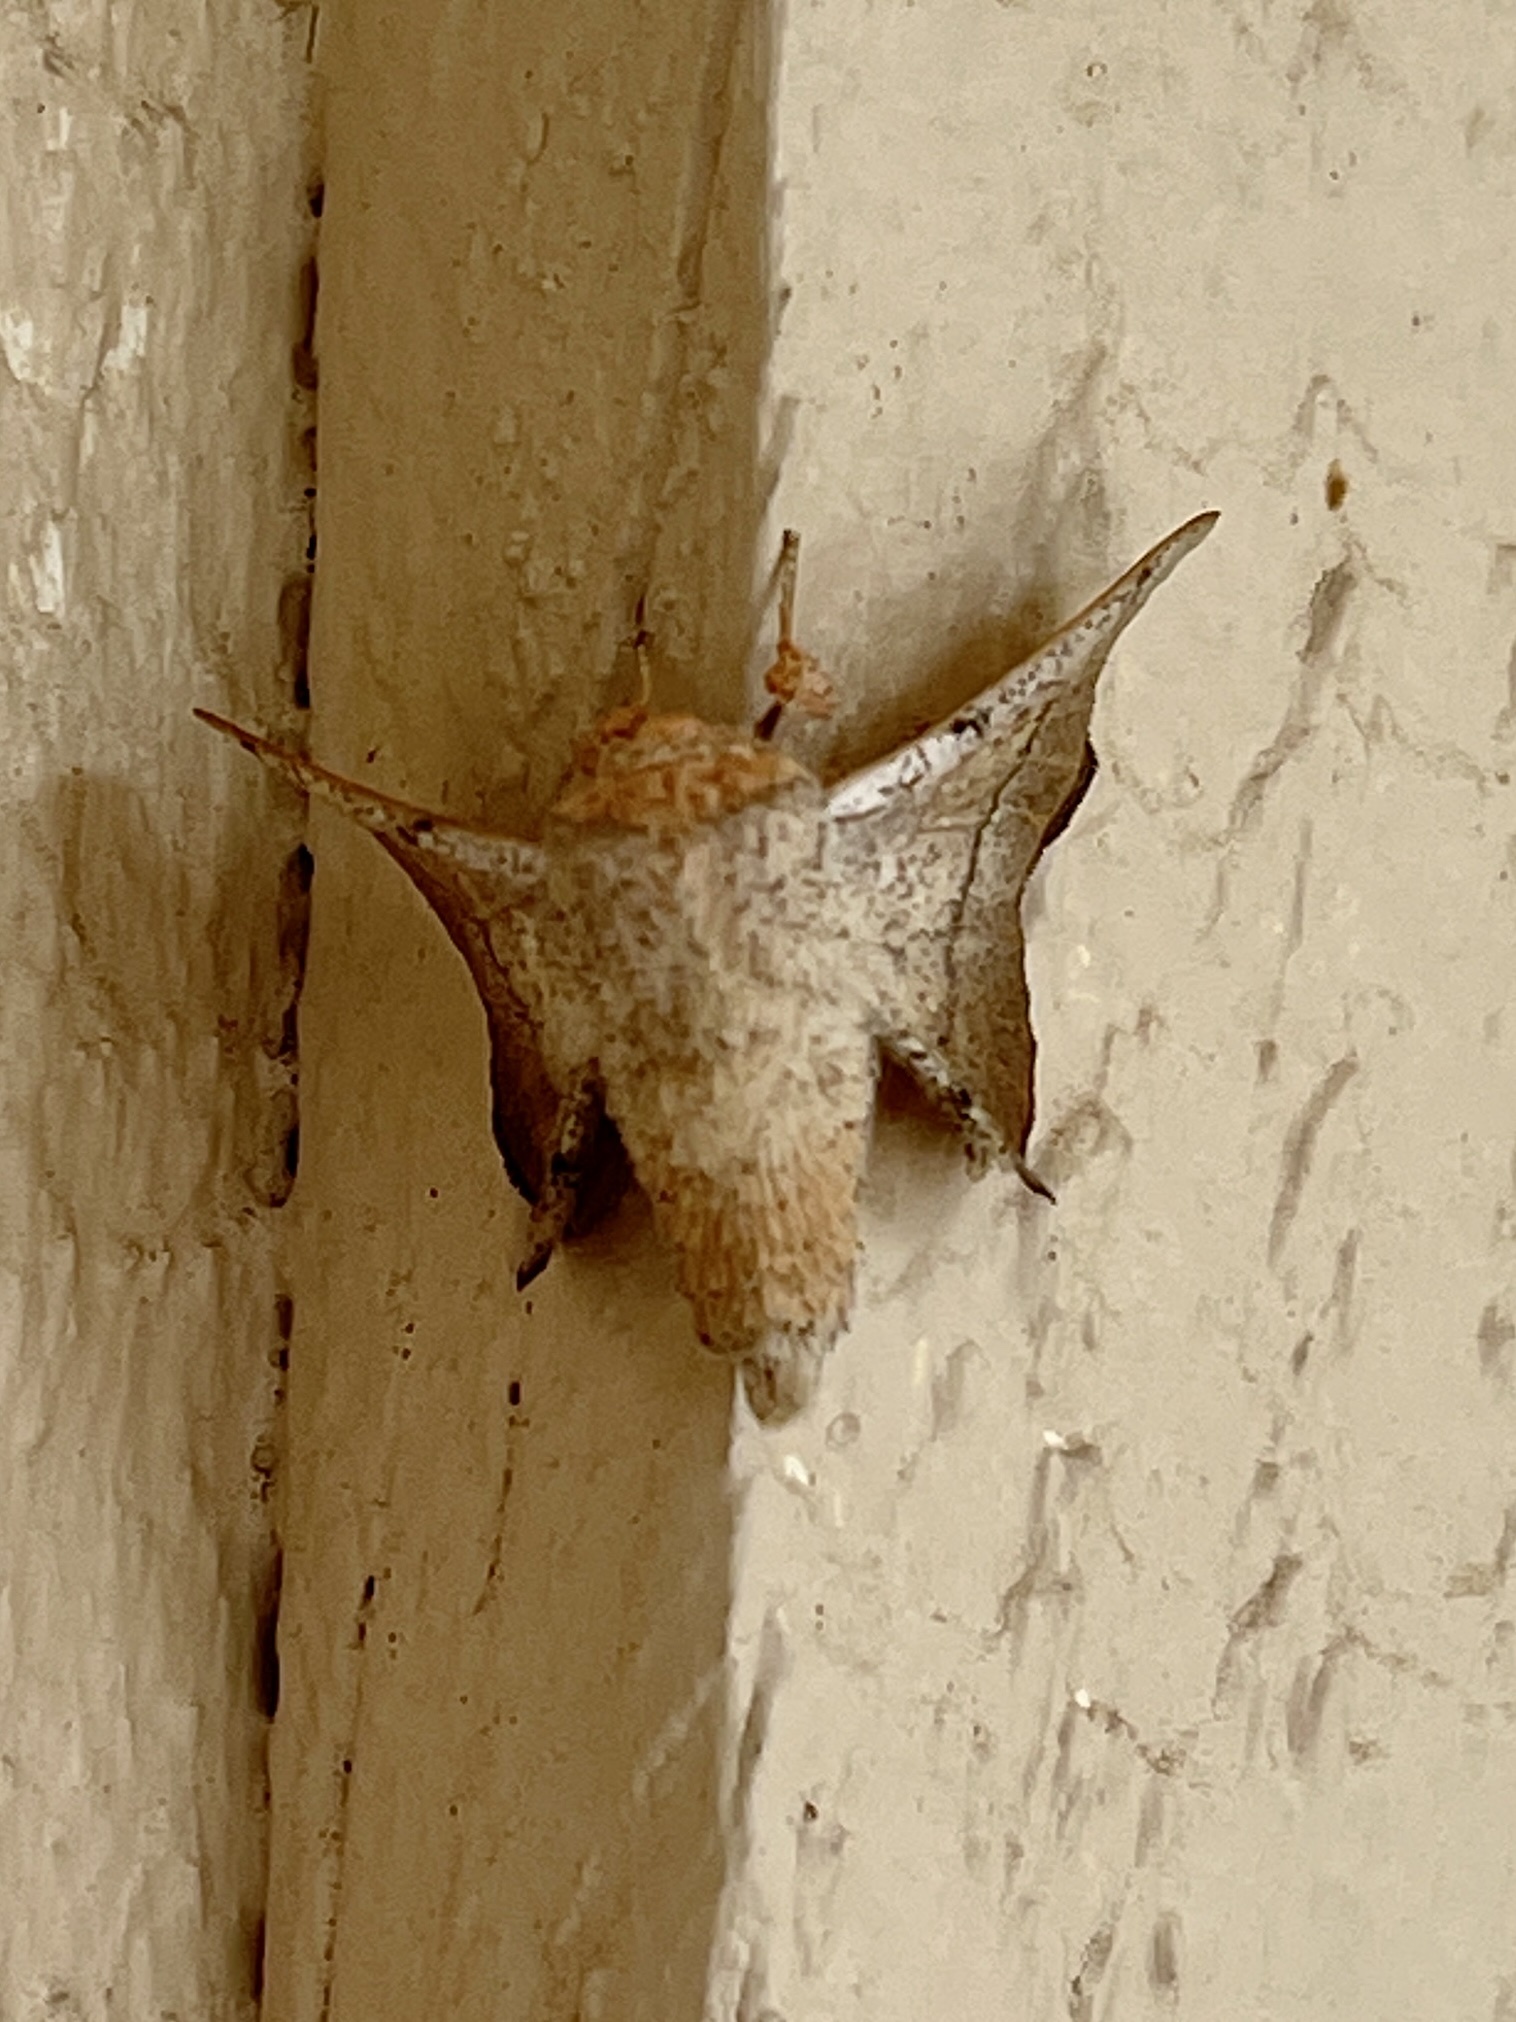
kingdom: Animalia
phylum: Arthropoda
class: Insecta
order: Lepidoptera
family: Mimallonidae
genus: Cicinnus
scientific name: Cicinnus melsheimeri
